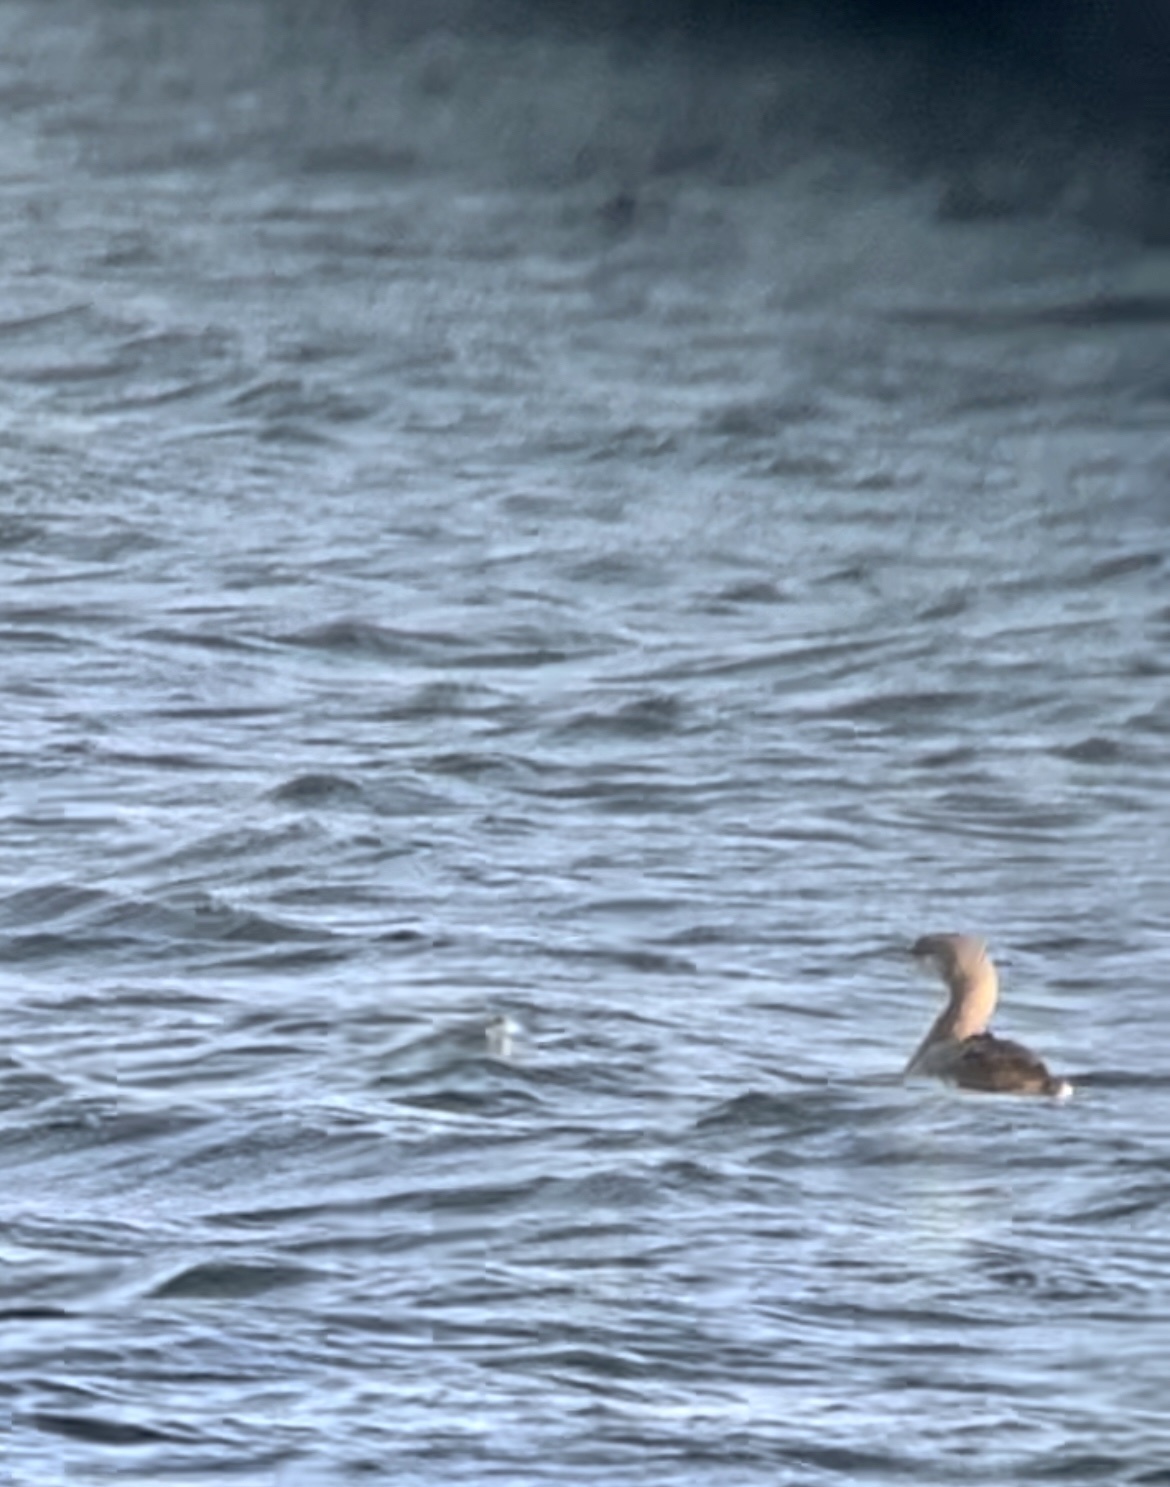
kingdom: Animalia
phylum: Chordata
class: Aves
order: Gaviiformes
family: Gaviidae
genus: Gavia
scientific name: Gavia arctica
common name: Black-throated loon
